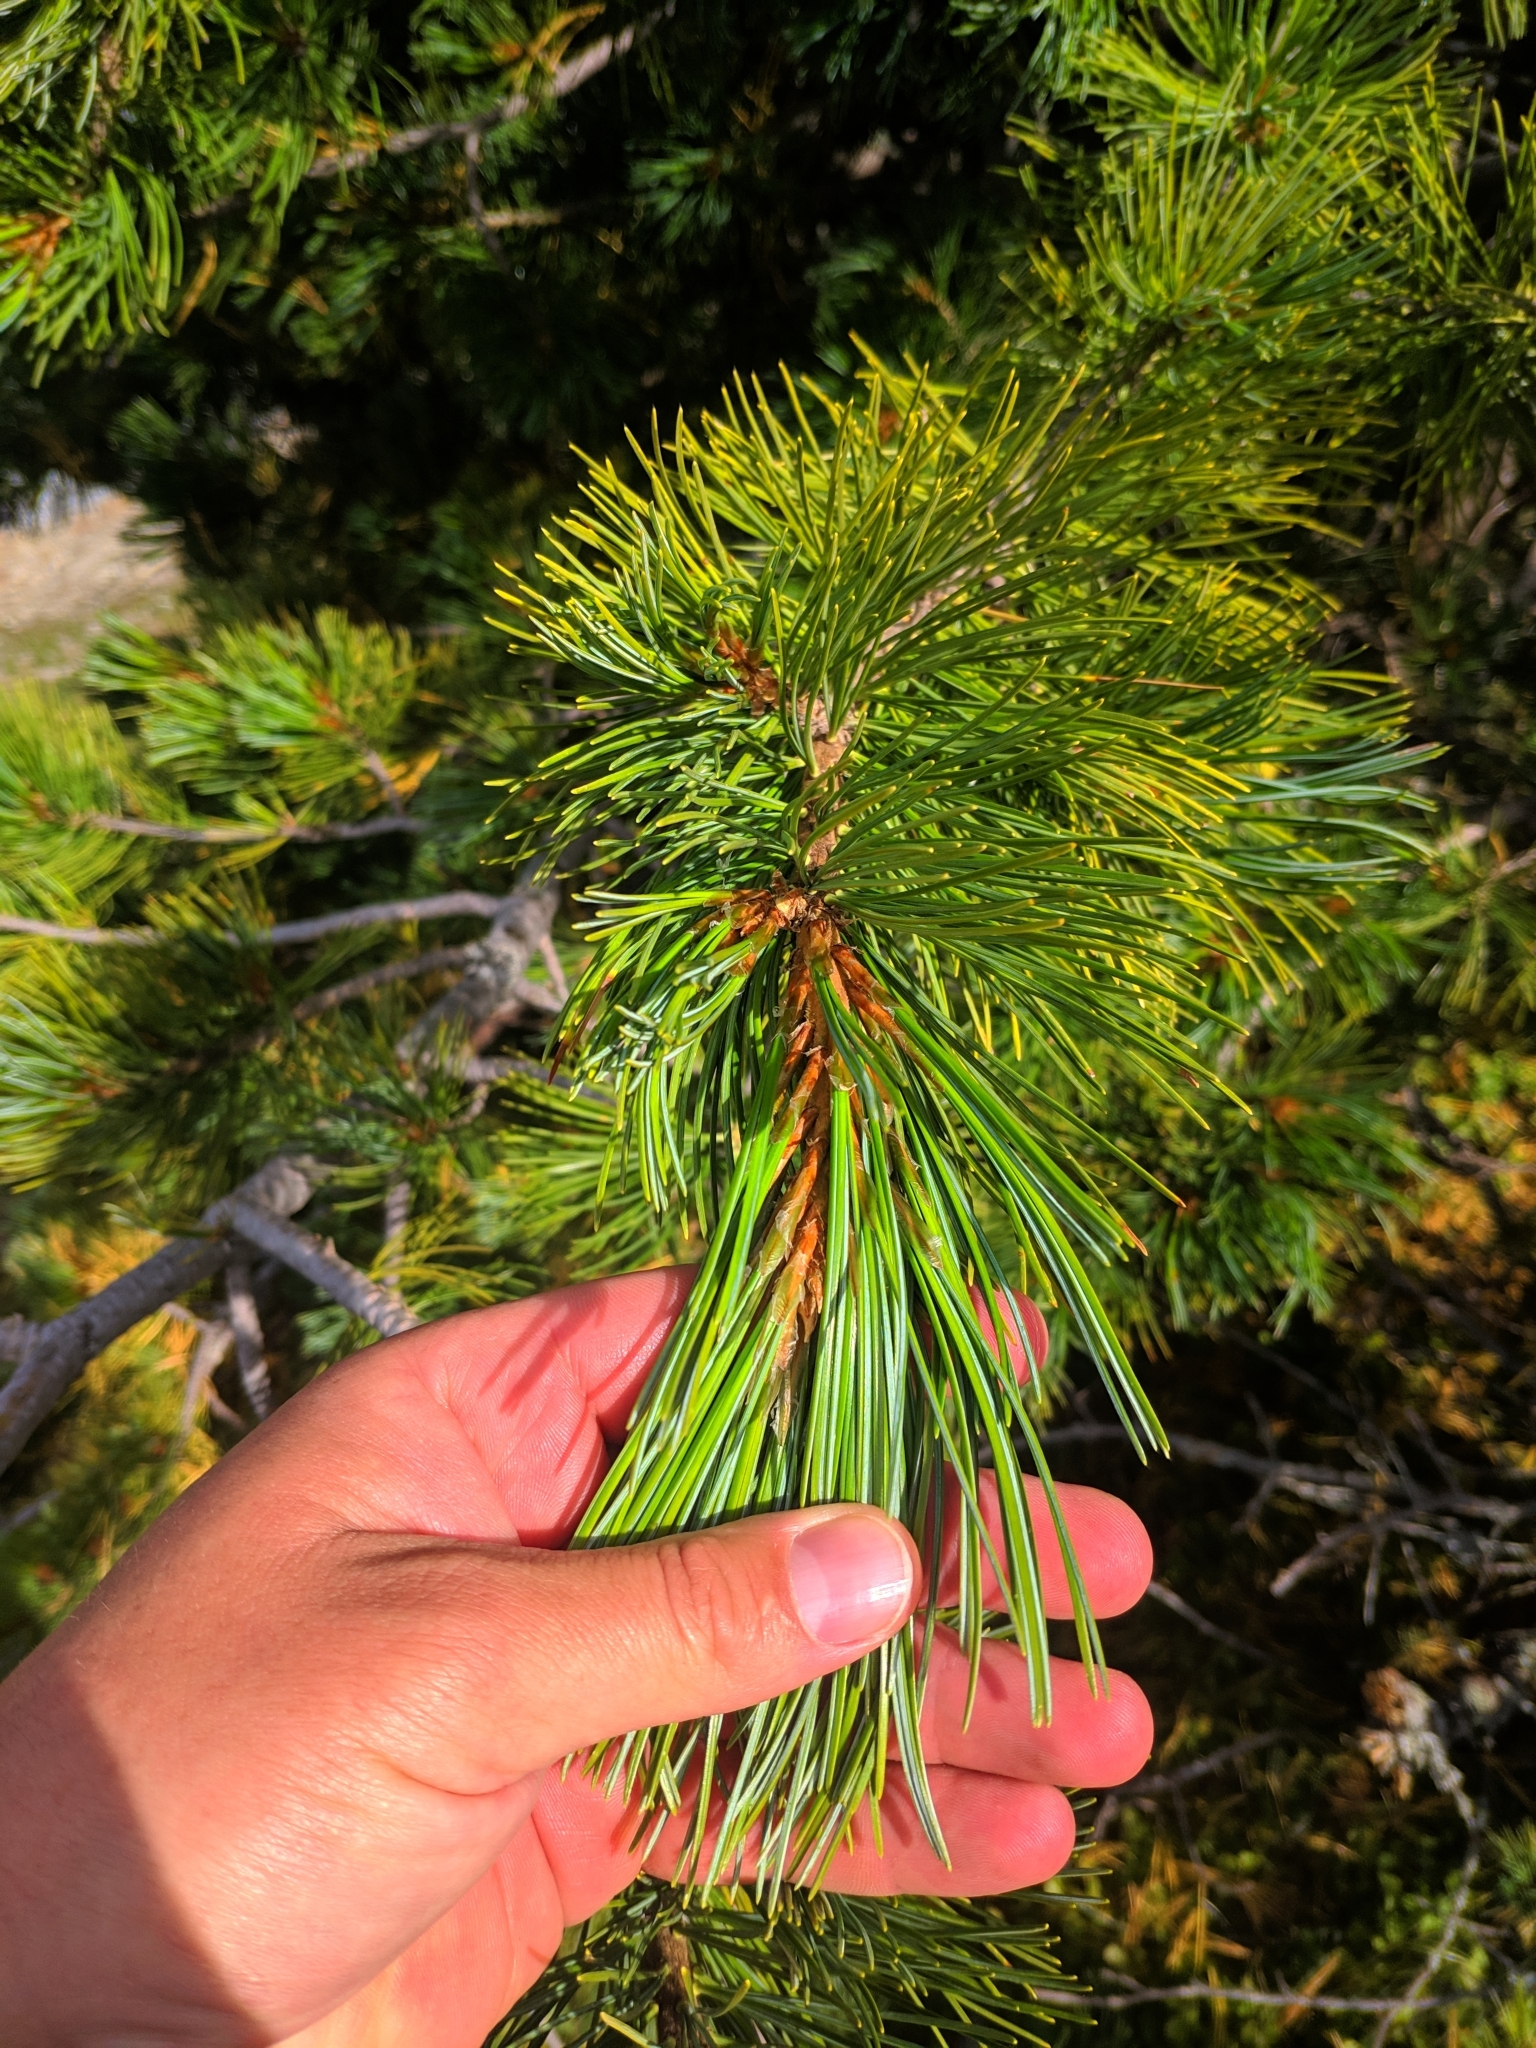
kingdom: Plantae
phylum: Tracheophyta
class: Pinopsida
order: Pinales
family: Pinaceae
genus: Pinus
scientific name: Pinus cembra
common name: Arolla pine
